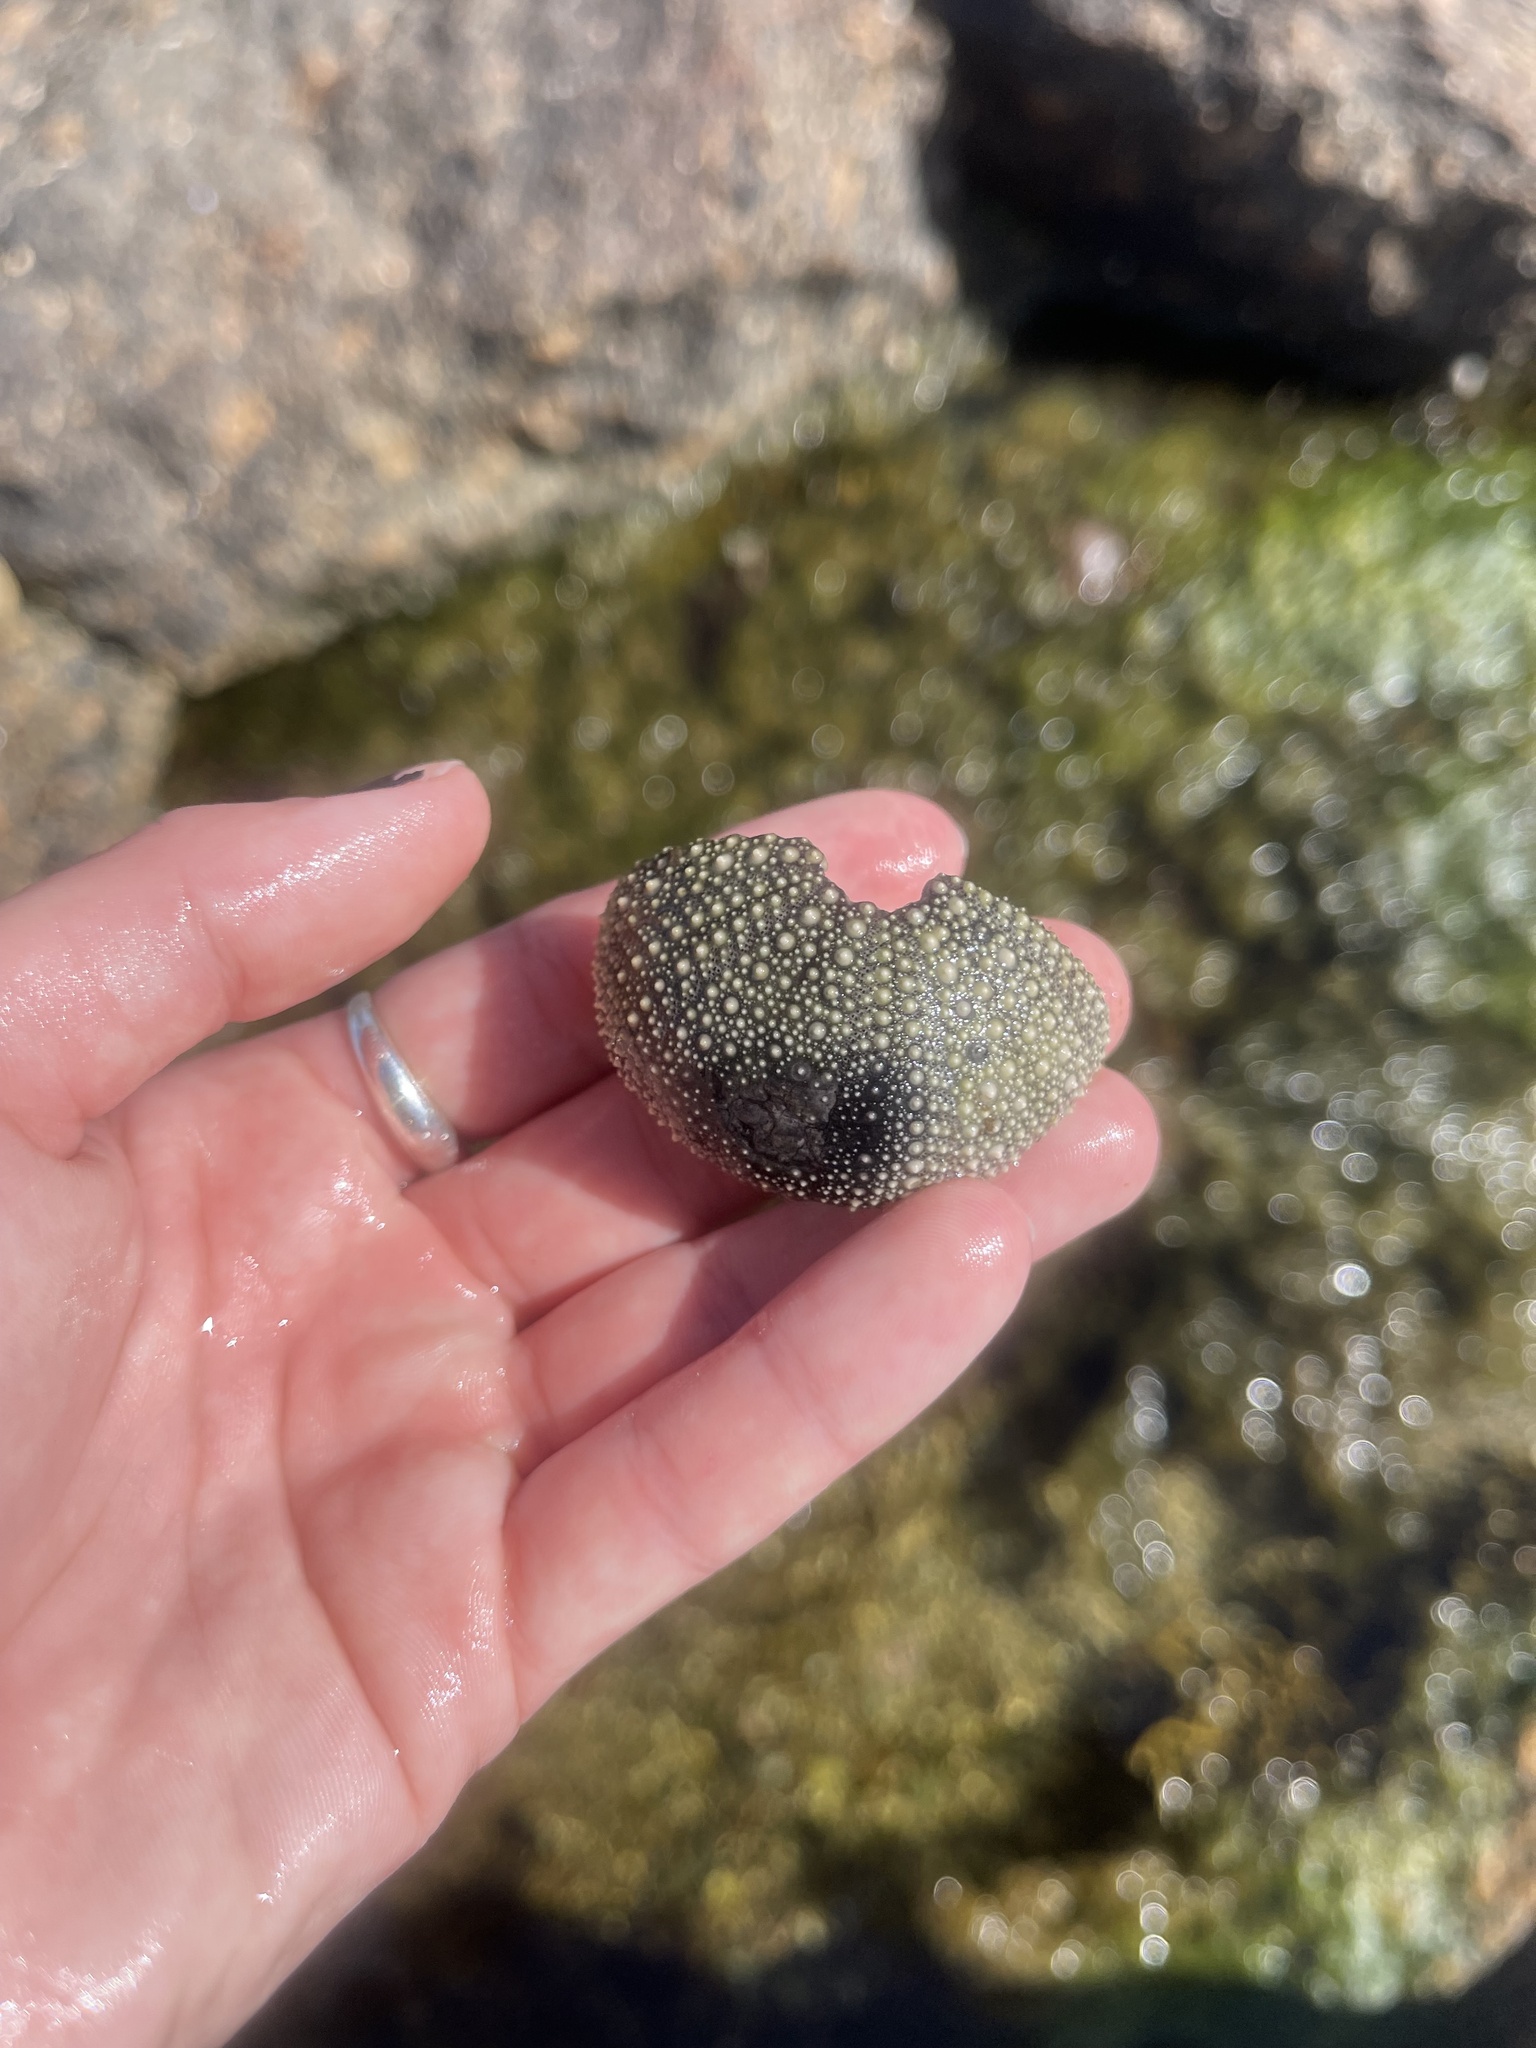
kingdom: Animalia
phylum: Echinodermata
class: Echinoidea
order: Camarodonta
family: Strongylocentrotidae
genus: Strongylocentrotus
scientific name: Strongylocentrotus droebachiensis
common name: Northern sea urchin
